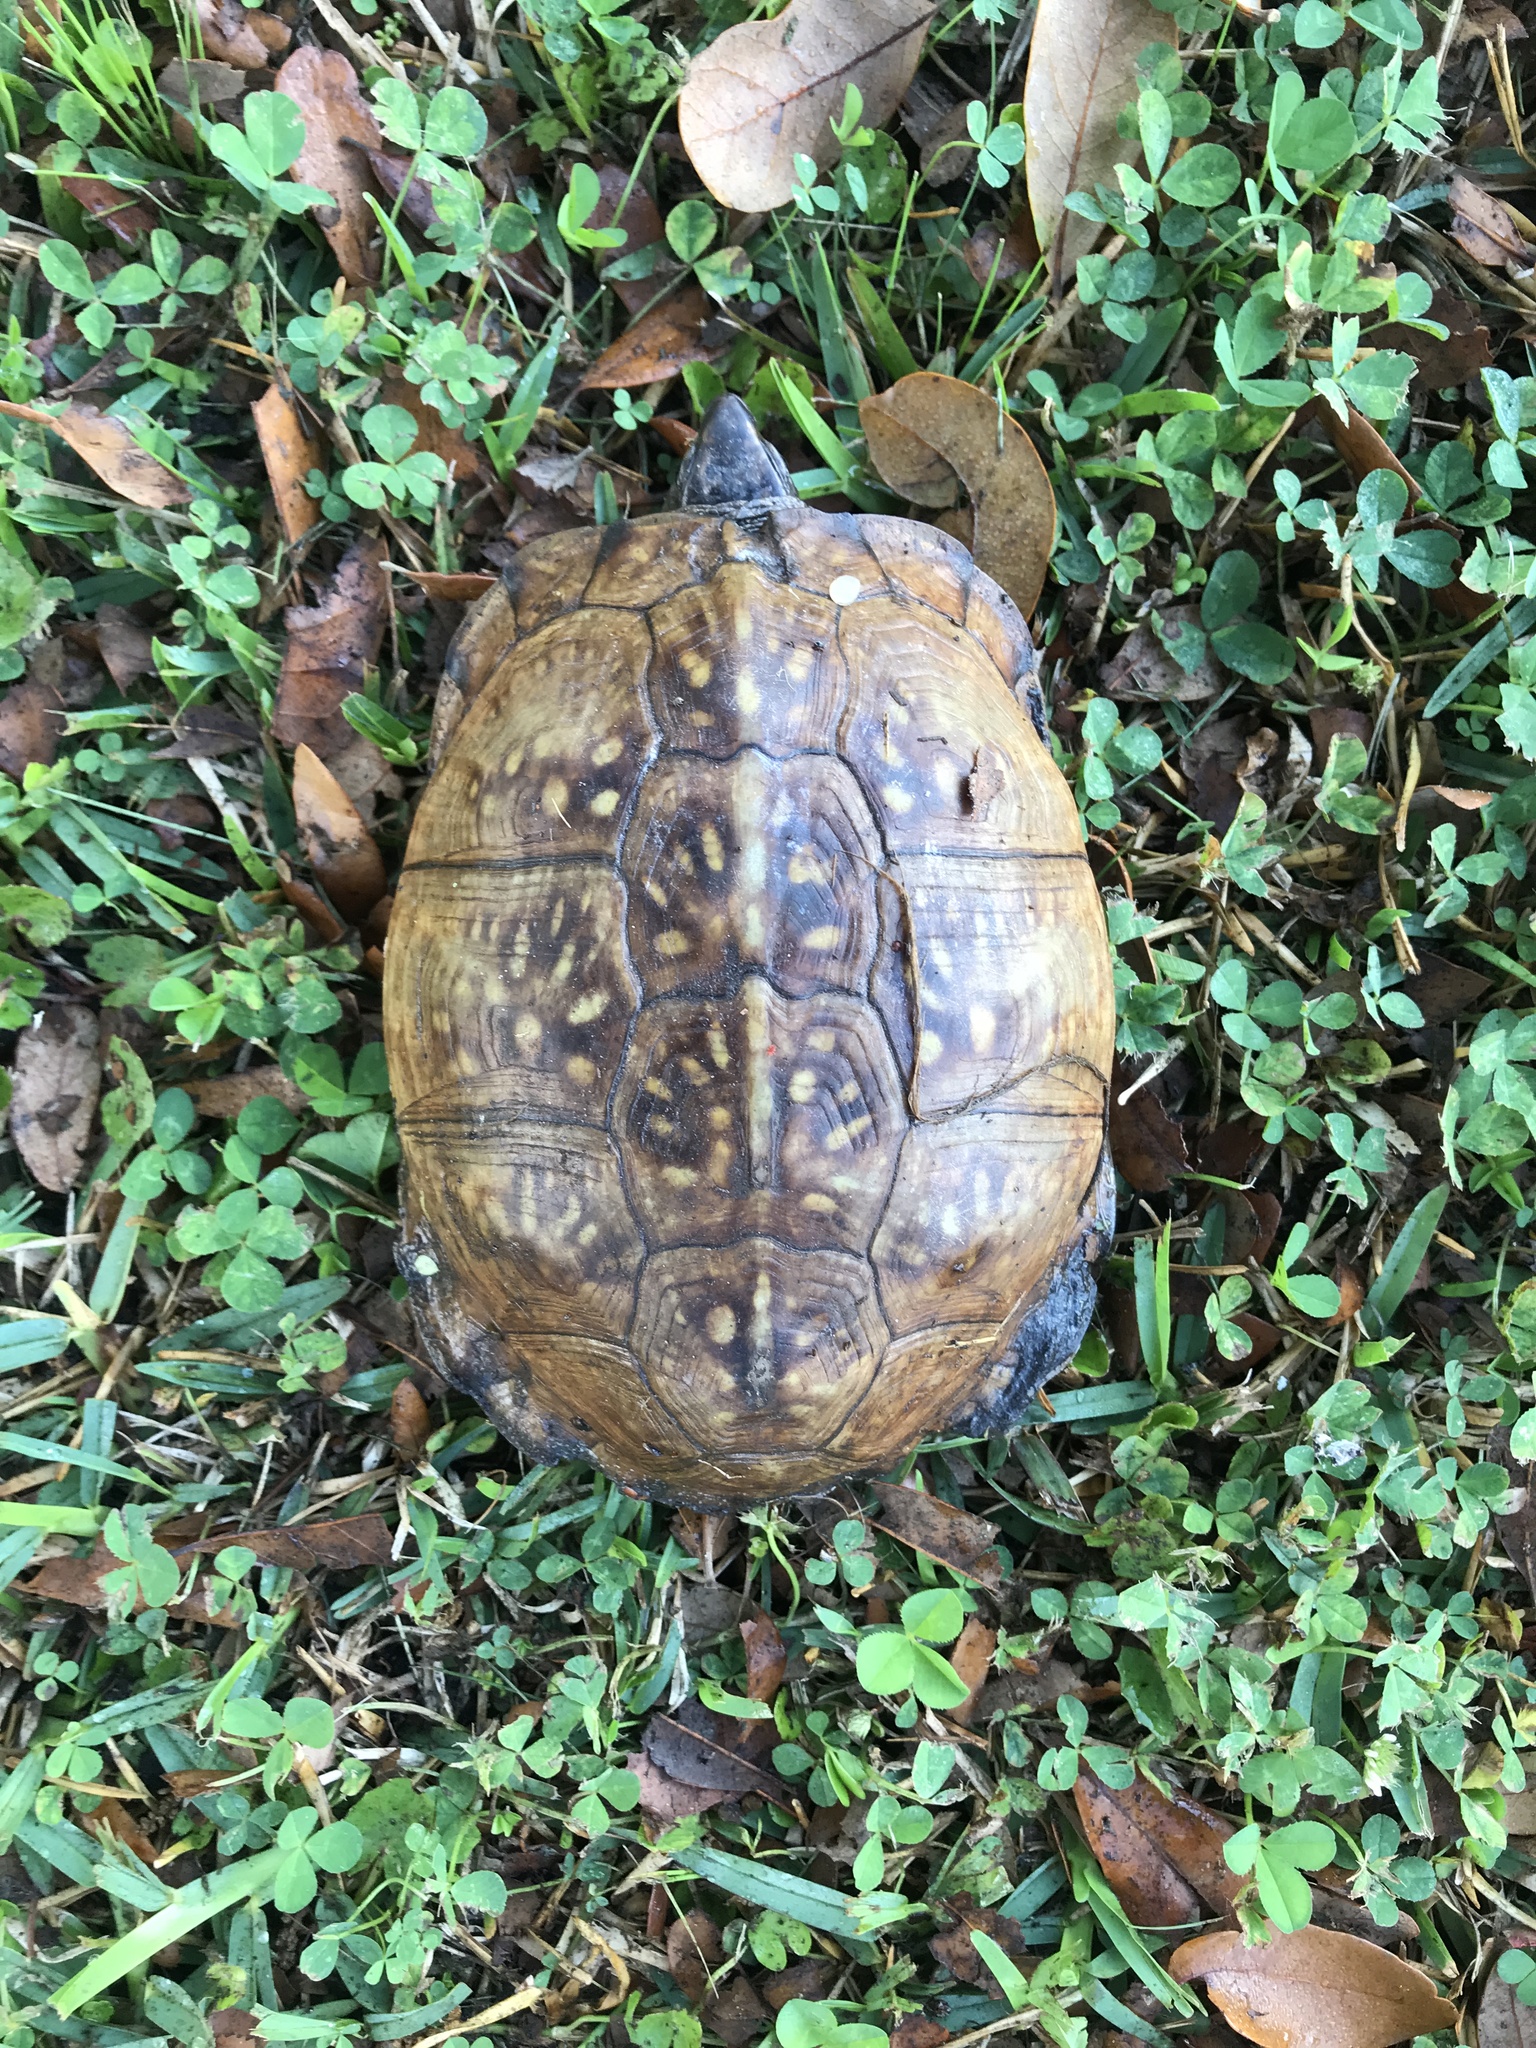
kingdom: Animalia
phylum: Chordata
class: Testudines
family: Emydidae
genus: Terrapene
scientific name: Terrapene carolina
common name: Common box turtle
